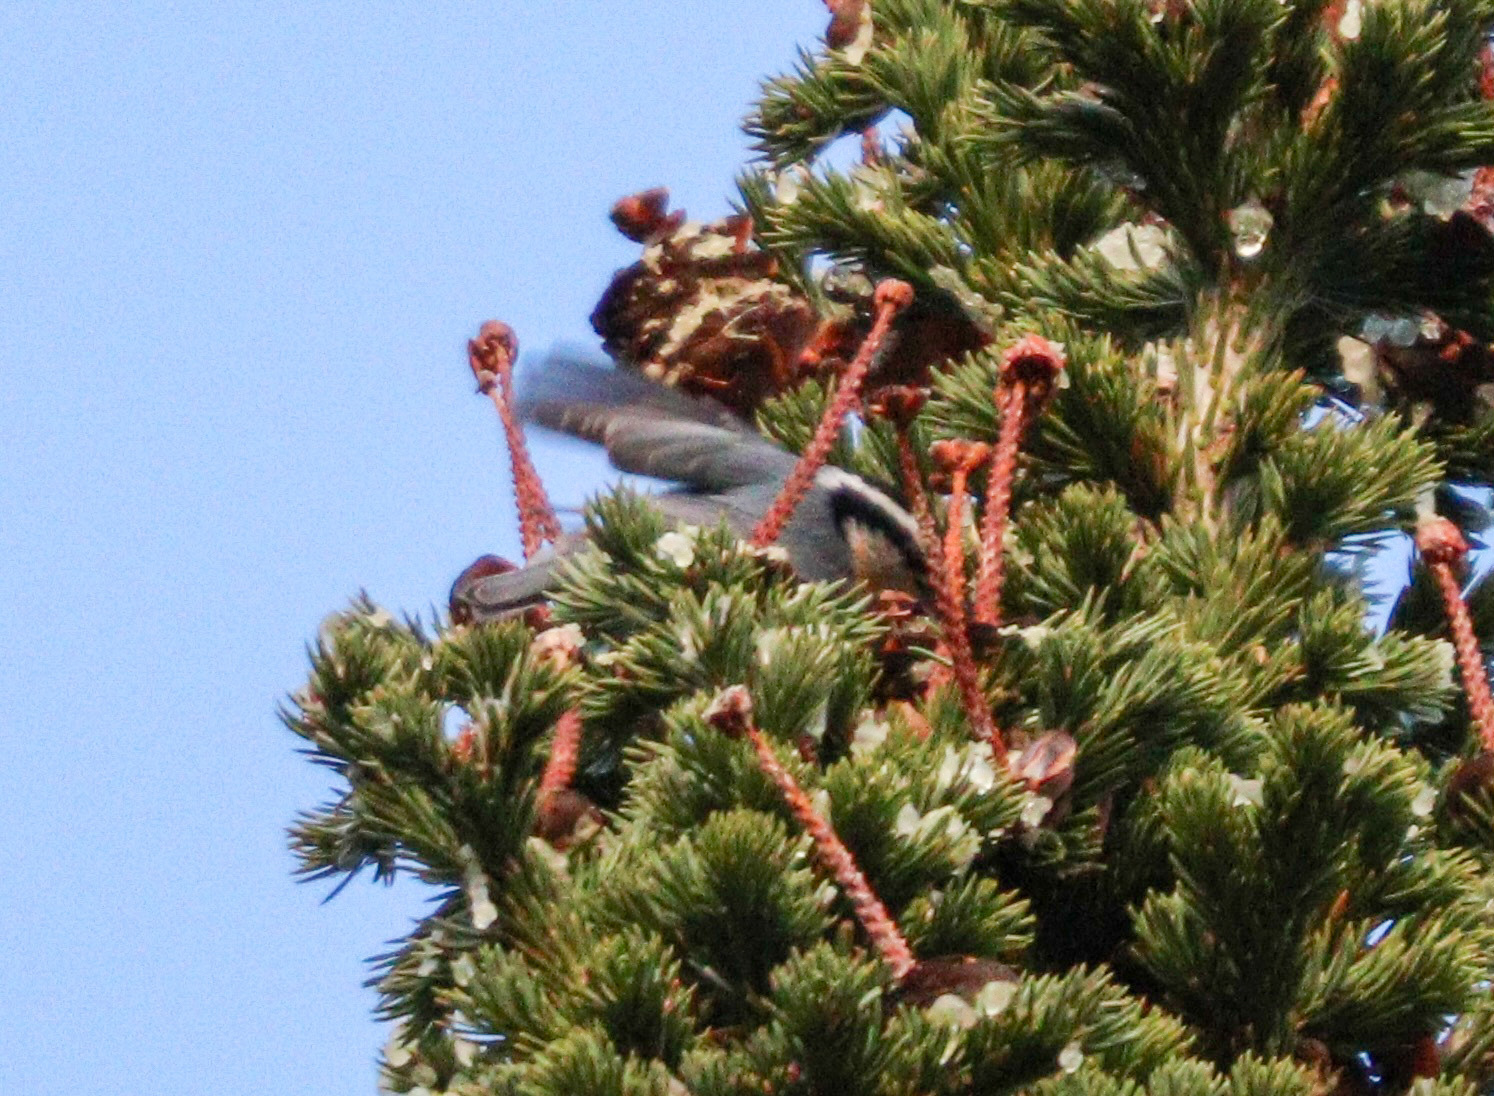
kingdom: Animalia
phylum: Chordata
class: Aves
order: Passeriformes
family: Sittidae
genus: Sitta
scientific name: Sitta canadensis
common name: Red-breasted nuthatch
